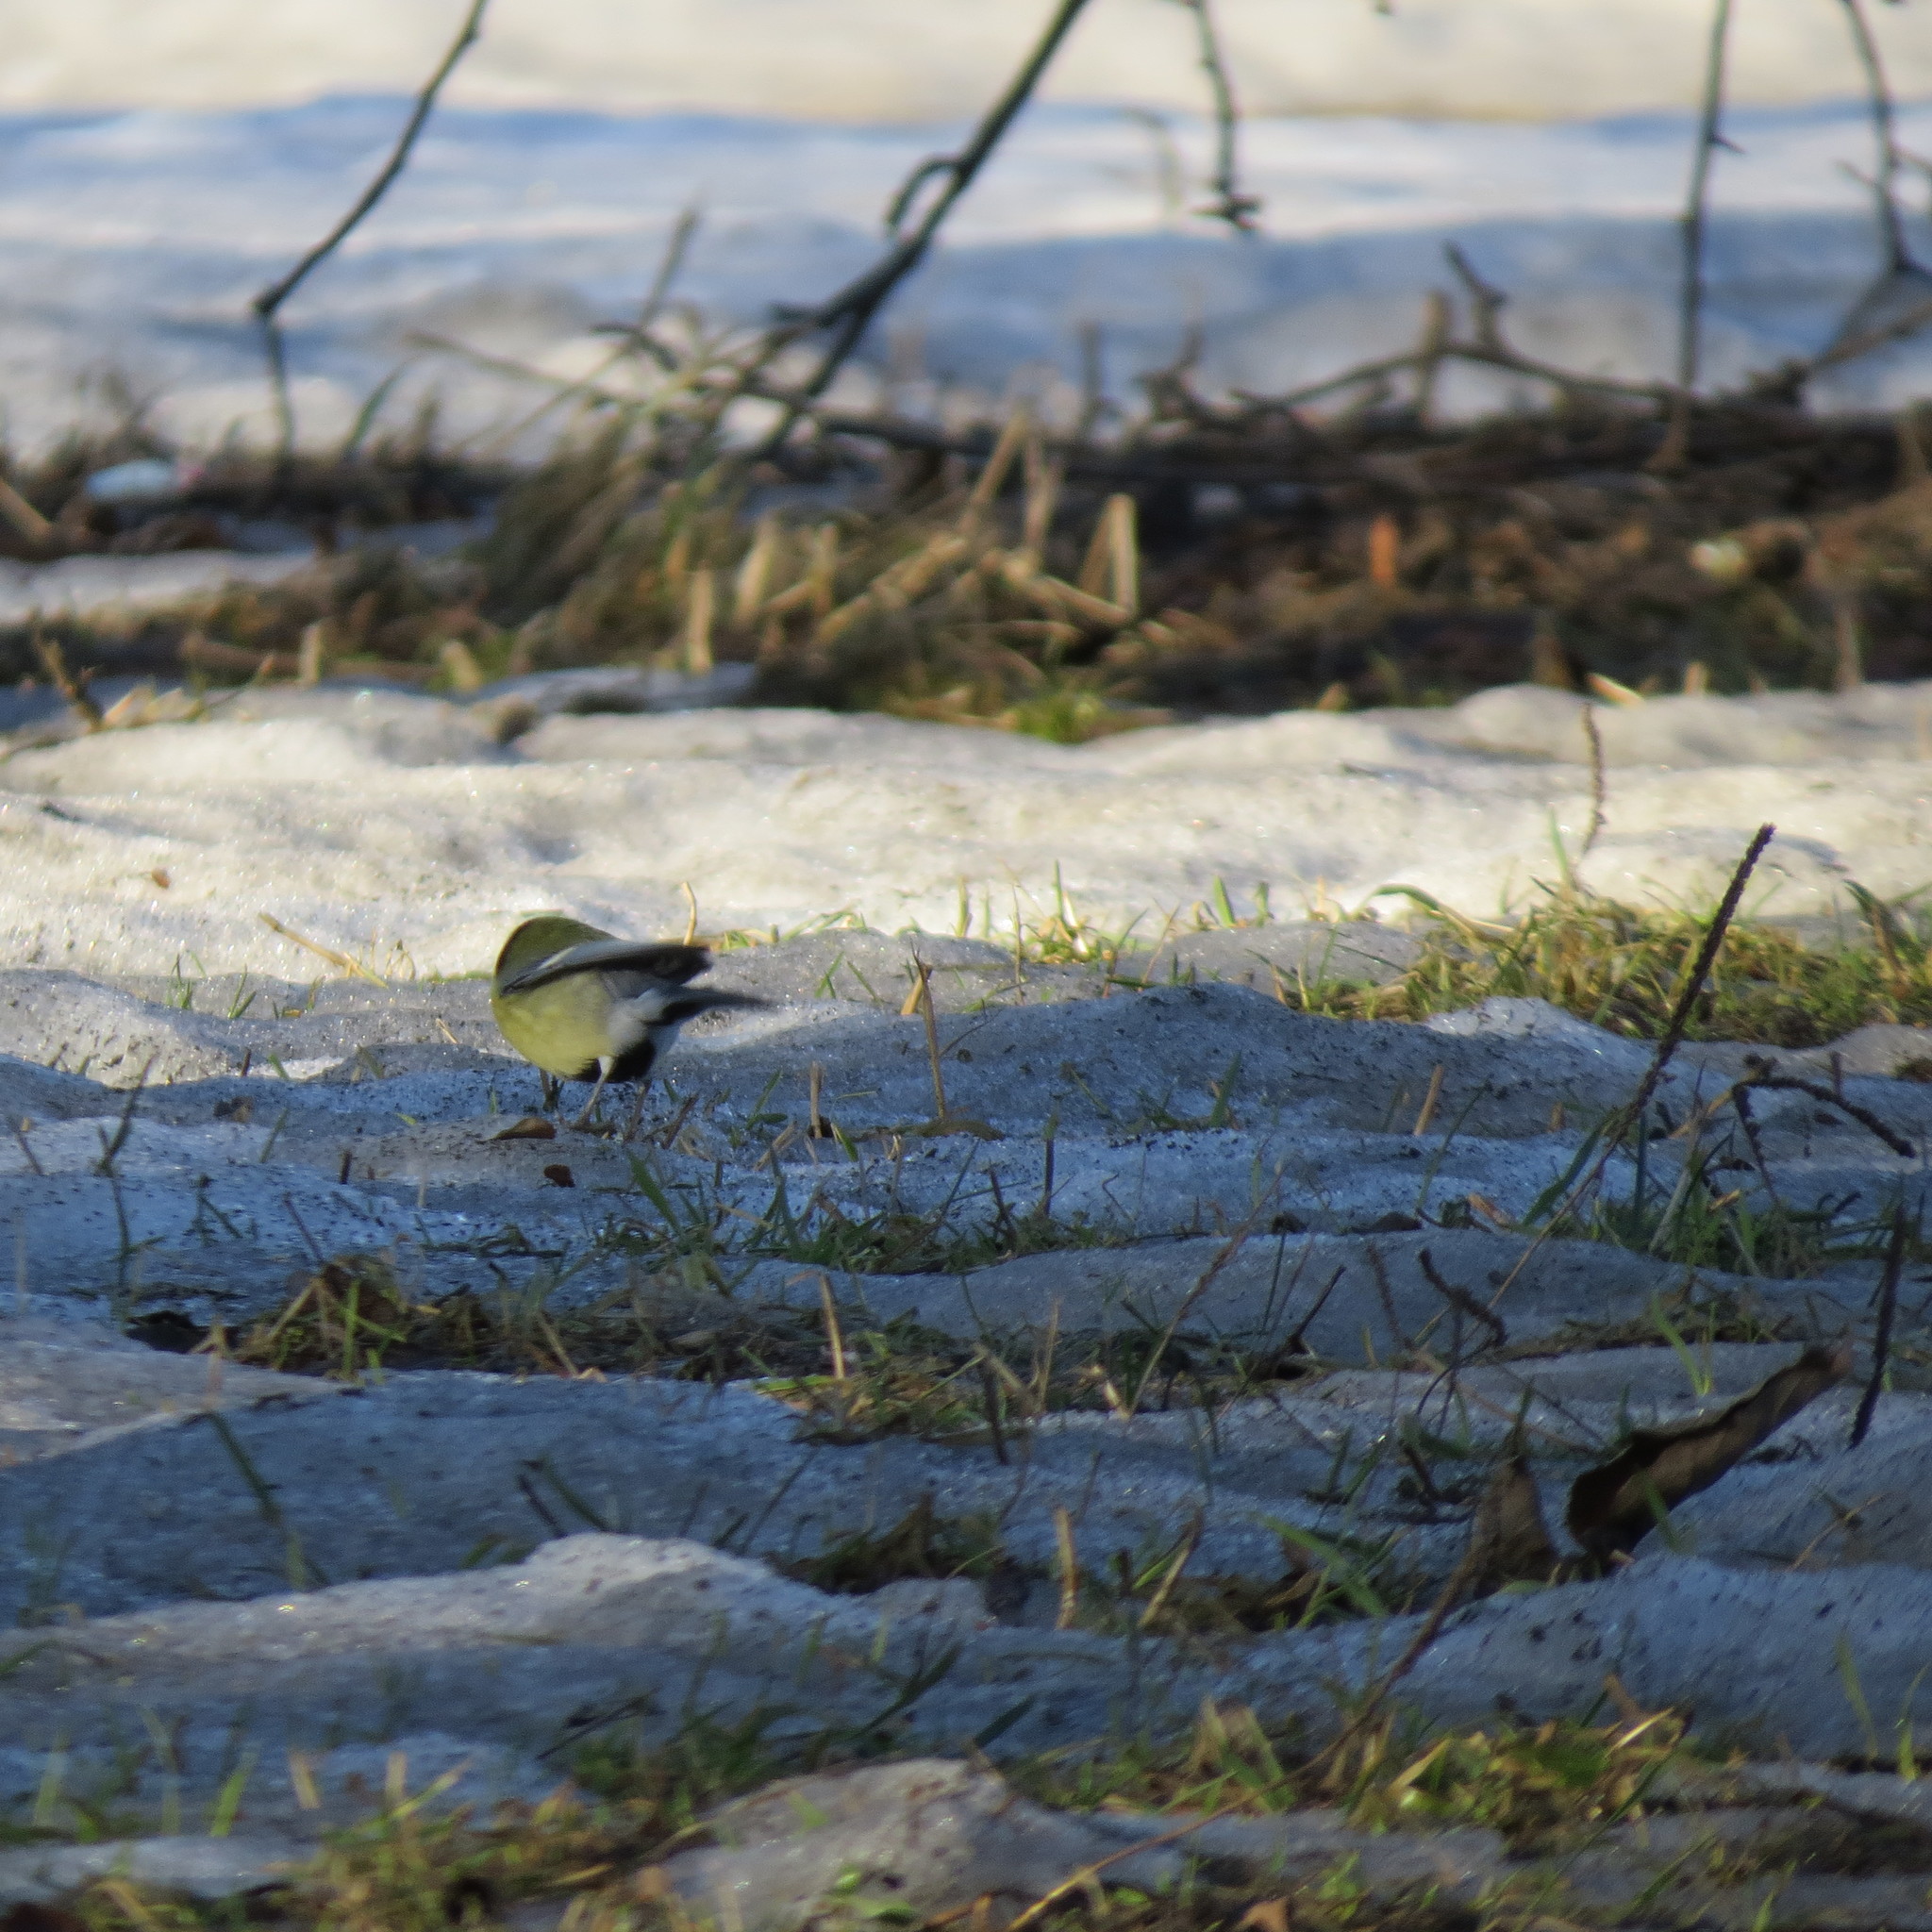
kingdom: Animalia
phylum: Chordata
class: Aves
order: Passeriformes
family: Paridae
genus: Parus
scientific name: Parus major
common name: Great tit
